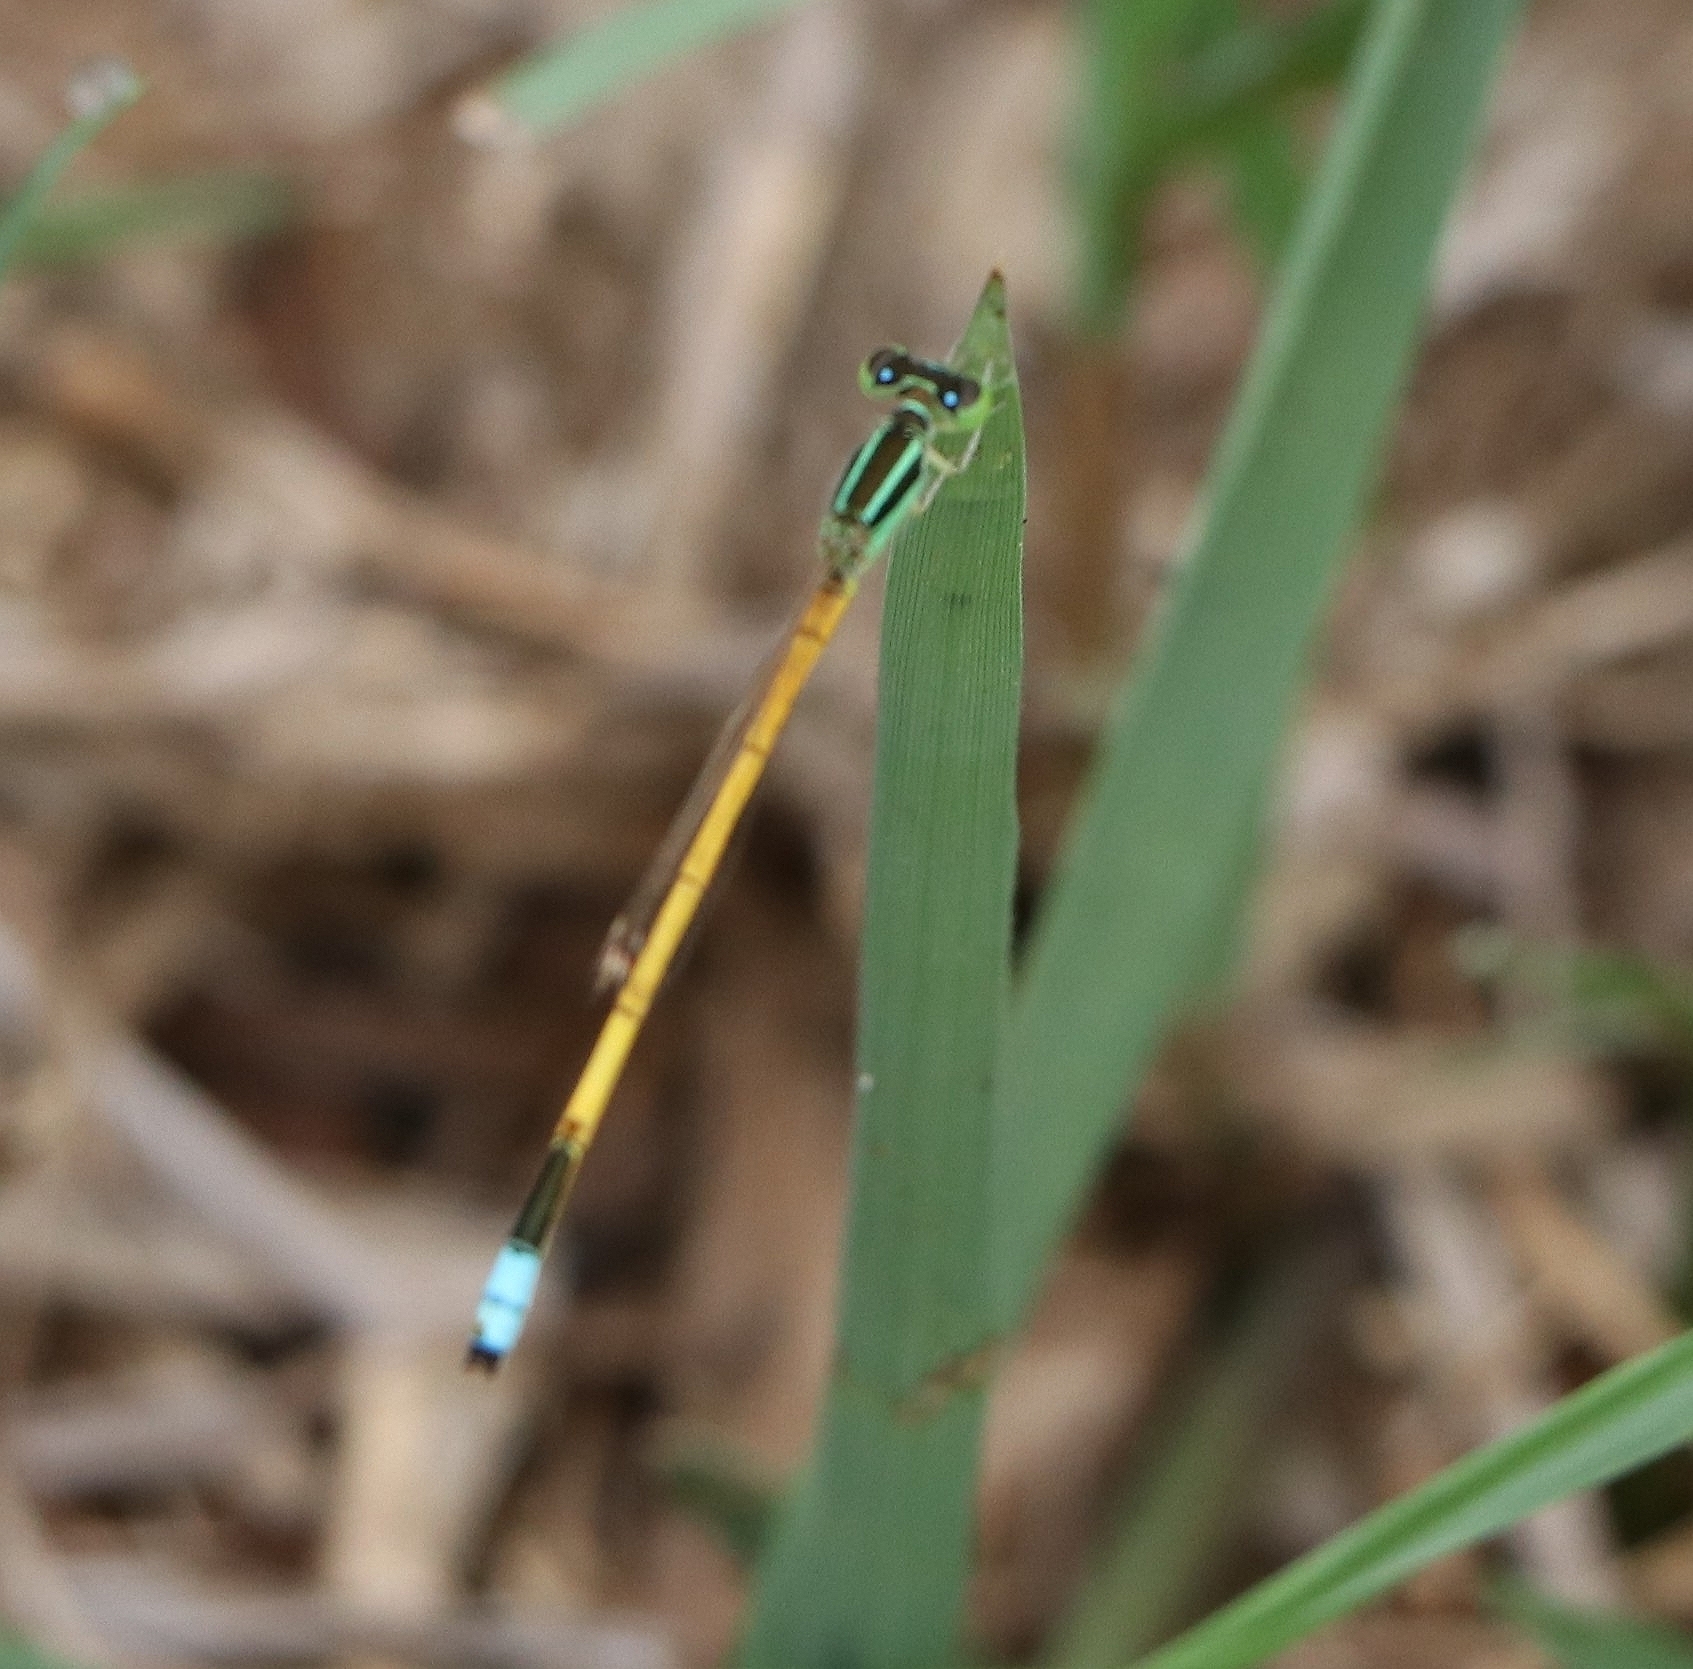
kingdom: Animalia
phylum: Arthropoda
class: Insecta
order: Odonata
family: Coenagrionidae
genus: Ischnura
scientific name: Ischnura rubilio
